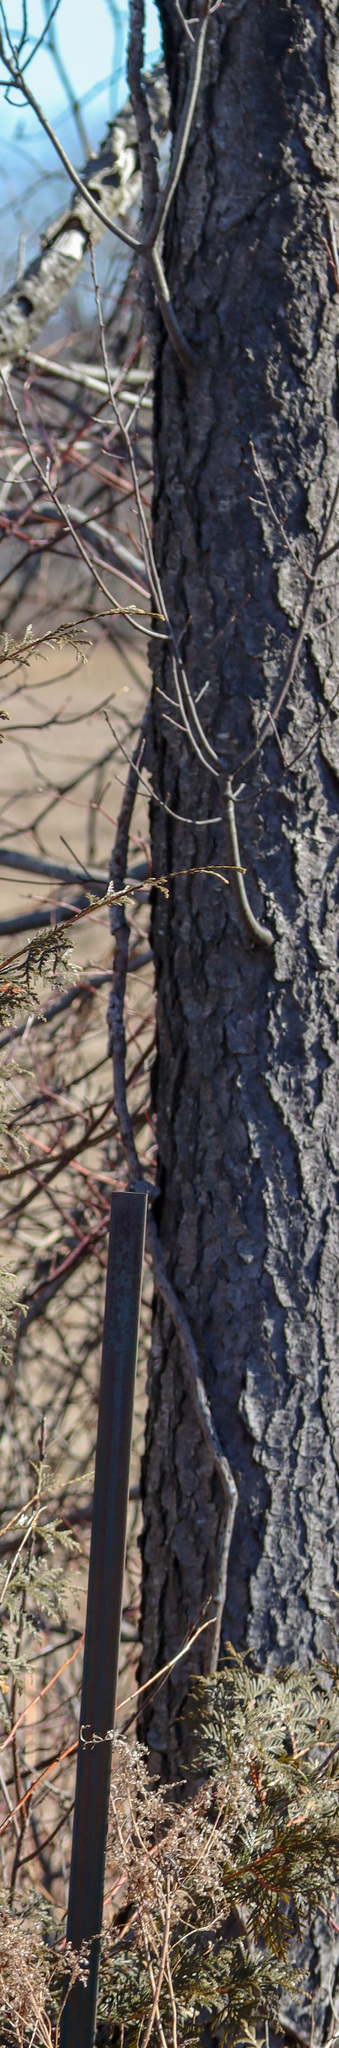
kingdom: Plantae
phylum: Tracheophyta
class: Magnoliopsida
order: Rosales
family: Rosaceae
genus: Prunus
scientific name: Prunus serotina
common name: Black cherry
